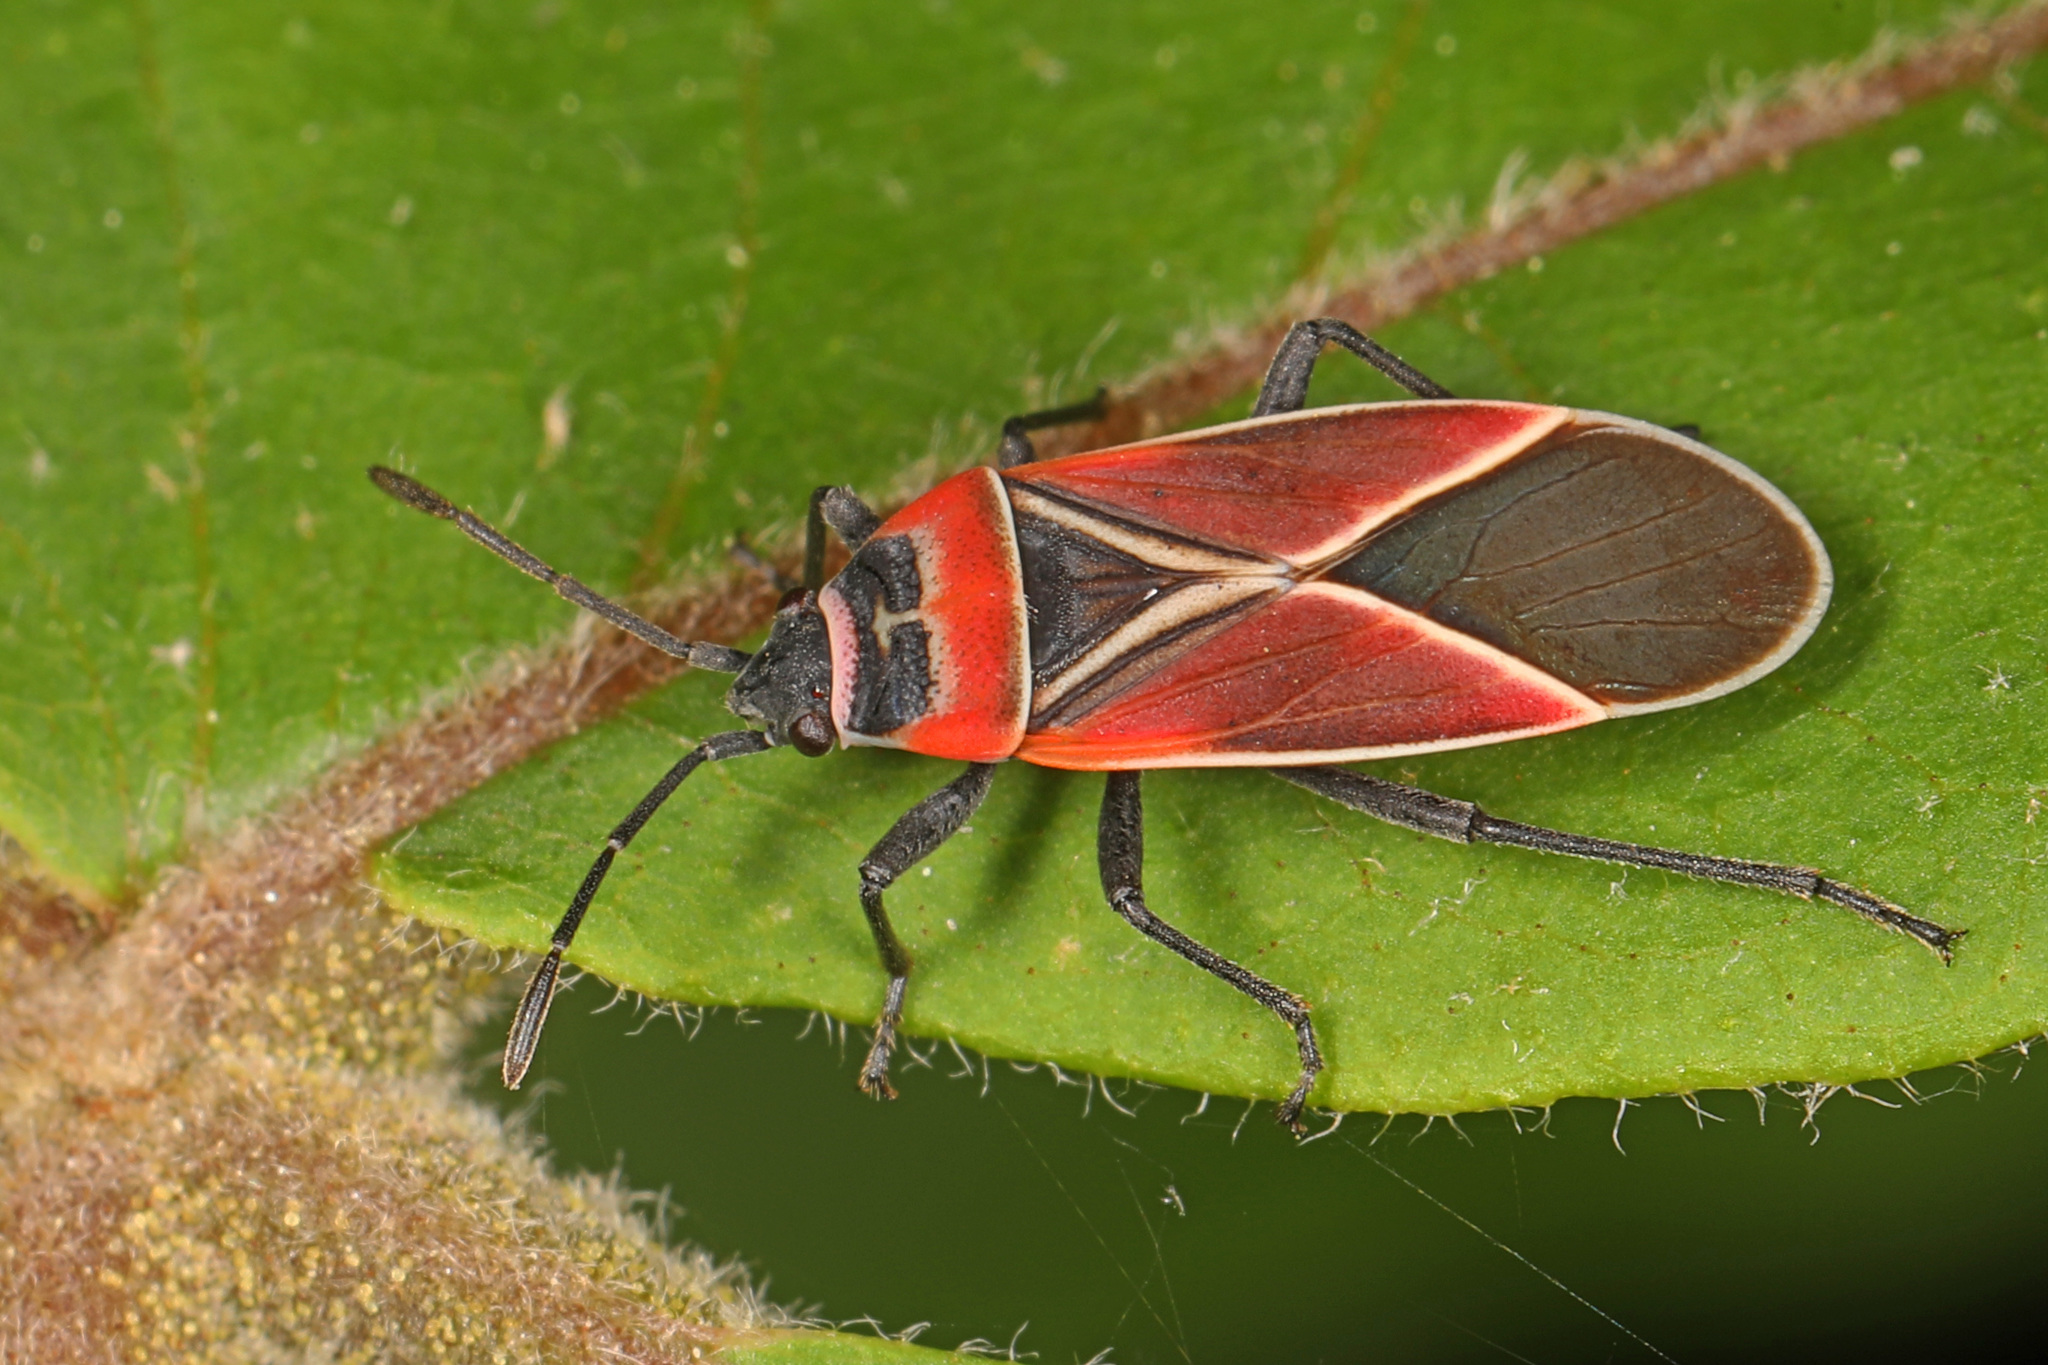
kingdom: Animalia
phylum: Arthropoda
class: Insecta
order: Hemiptera
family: Lygaeidae
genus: Neacoryphus
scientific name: Neacoryphus bicrucis
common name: Lygaeid bug
